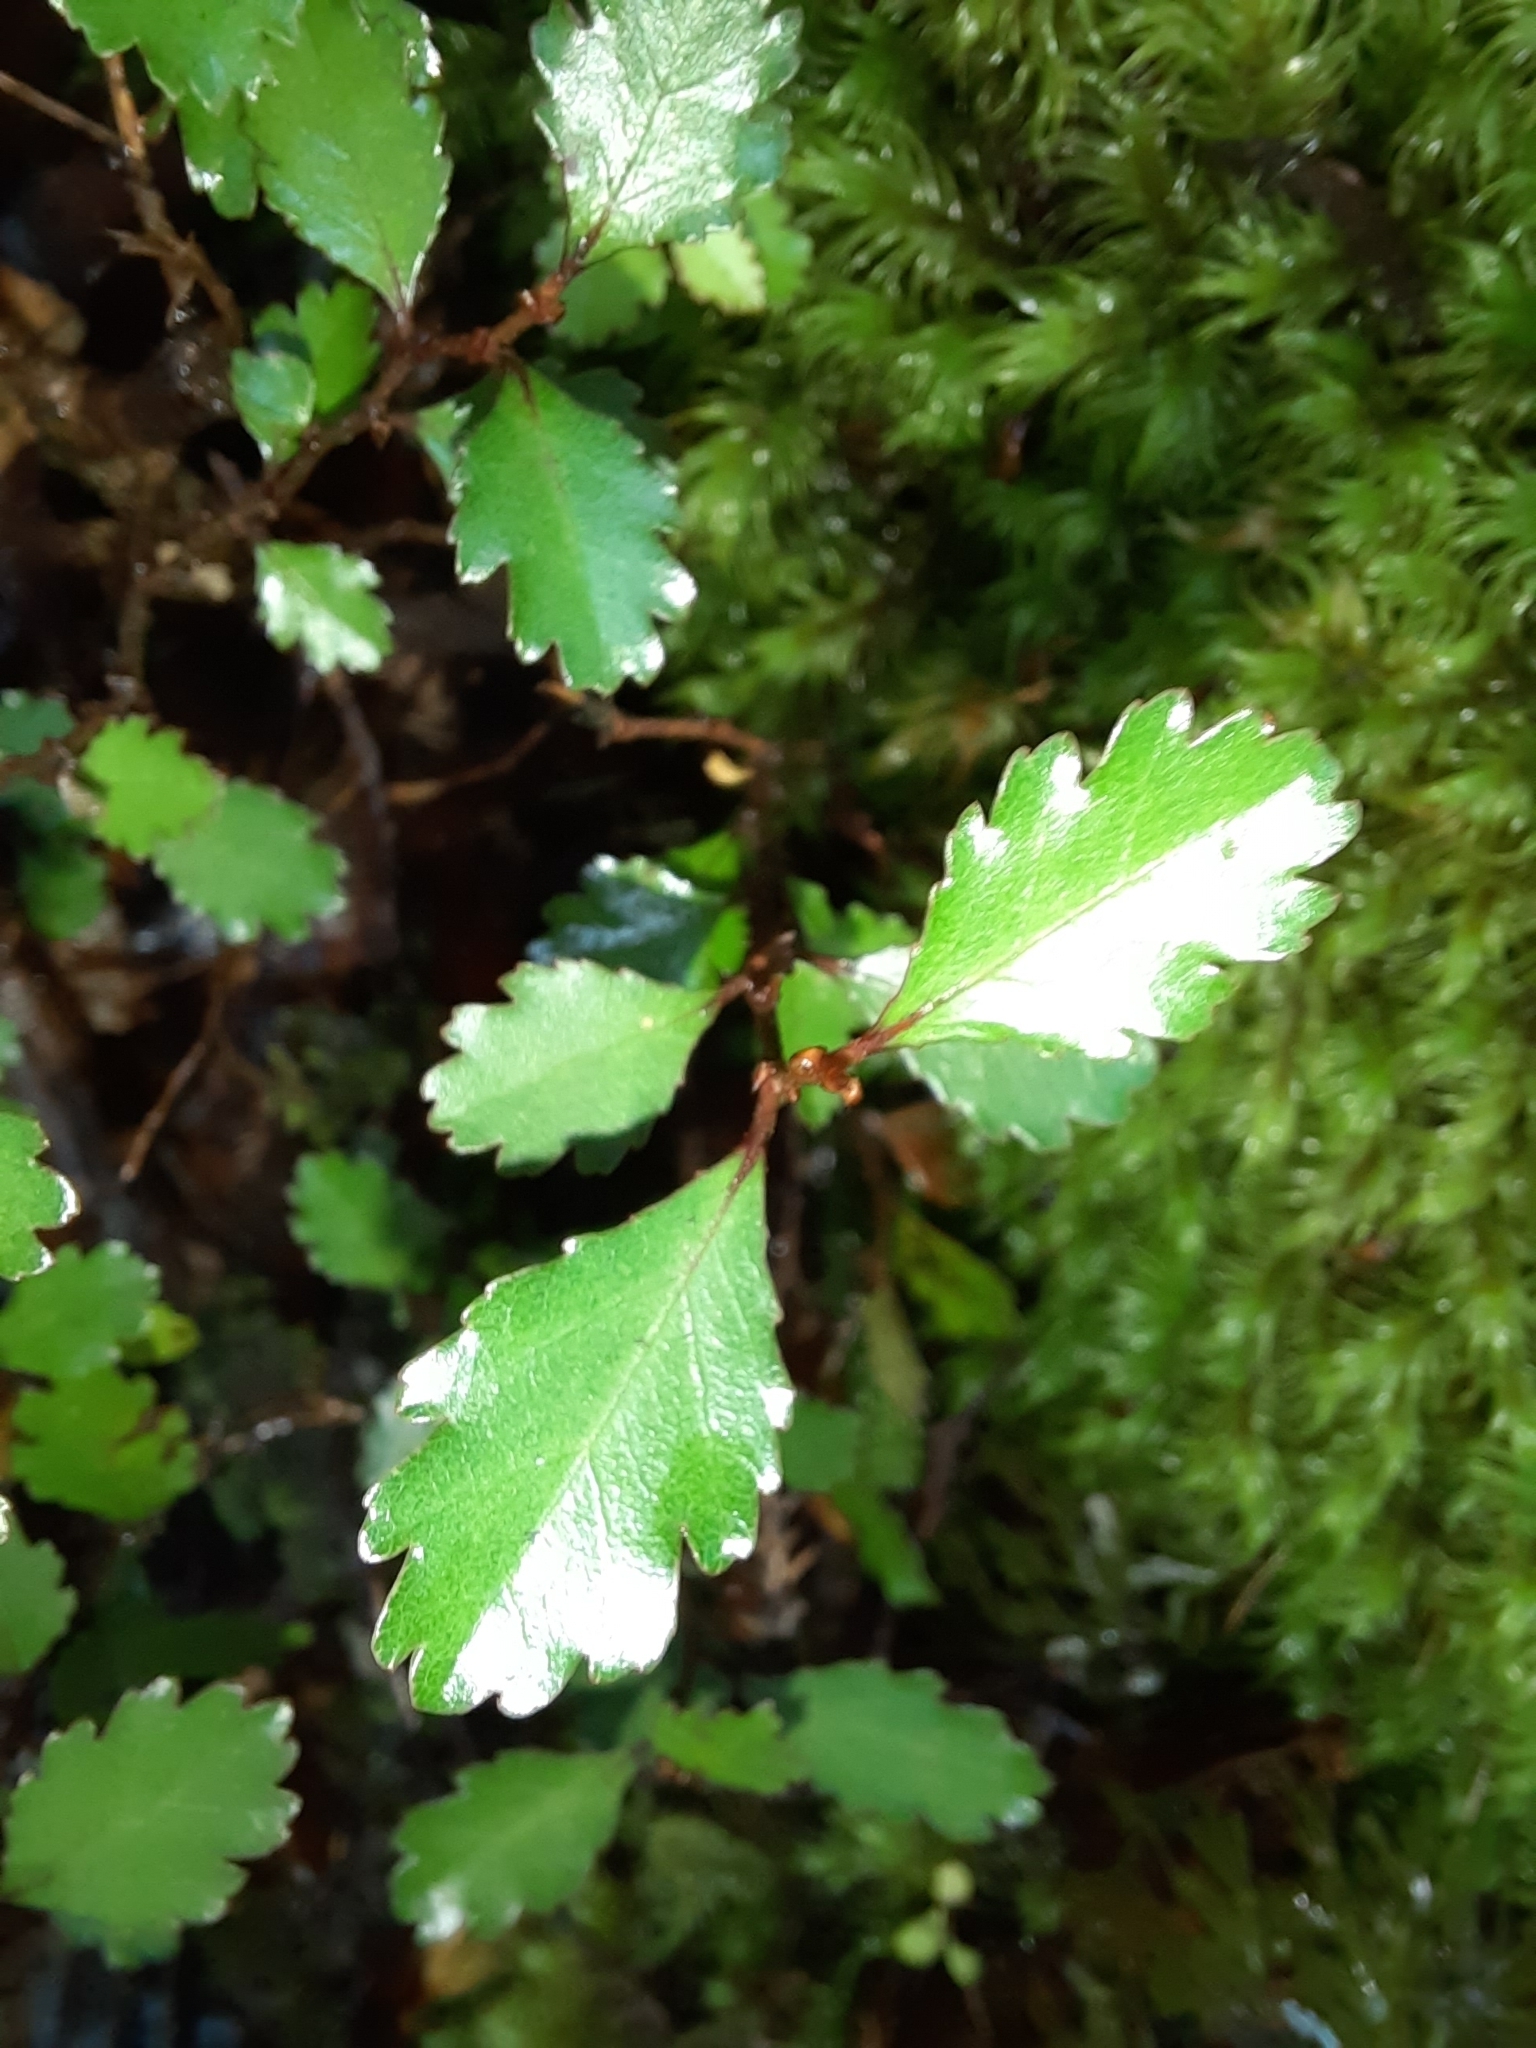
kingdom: Plantae
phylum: Tracheophyta
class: Magnoliopsida
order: Fagales
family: Nothofagaceae
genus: Nothofagus
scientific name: Nothofagus menziesii
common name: Silver beech
